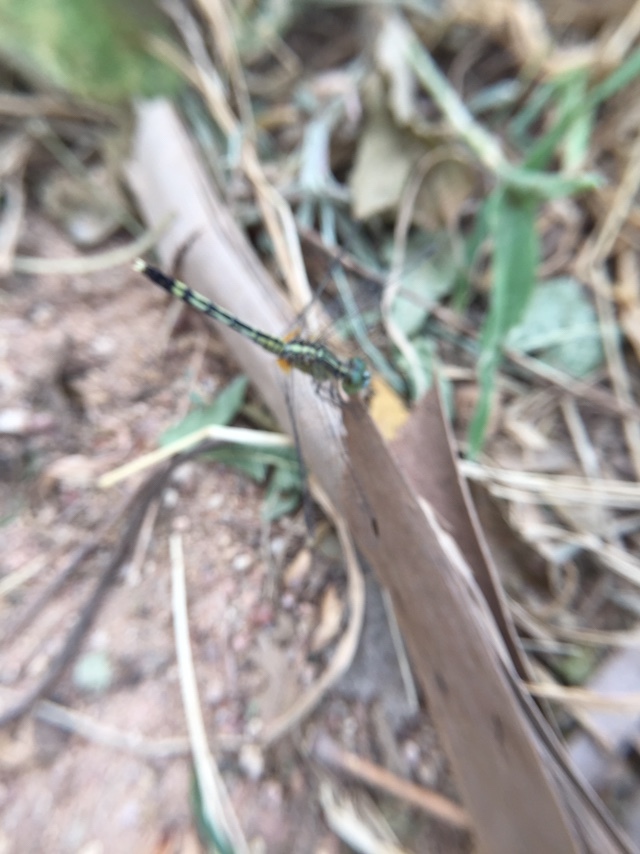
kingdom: Animalia
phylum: Arthropoda
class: Insecta
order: Odonata
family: Libellulidae
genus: Diplacodes
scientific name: Diplacodes trivialis
